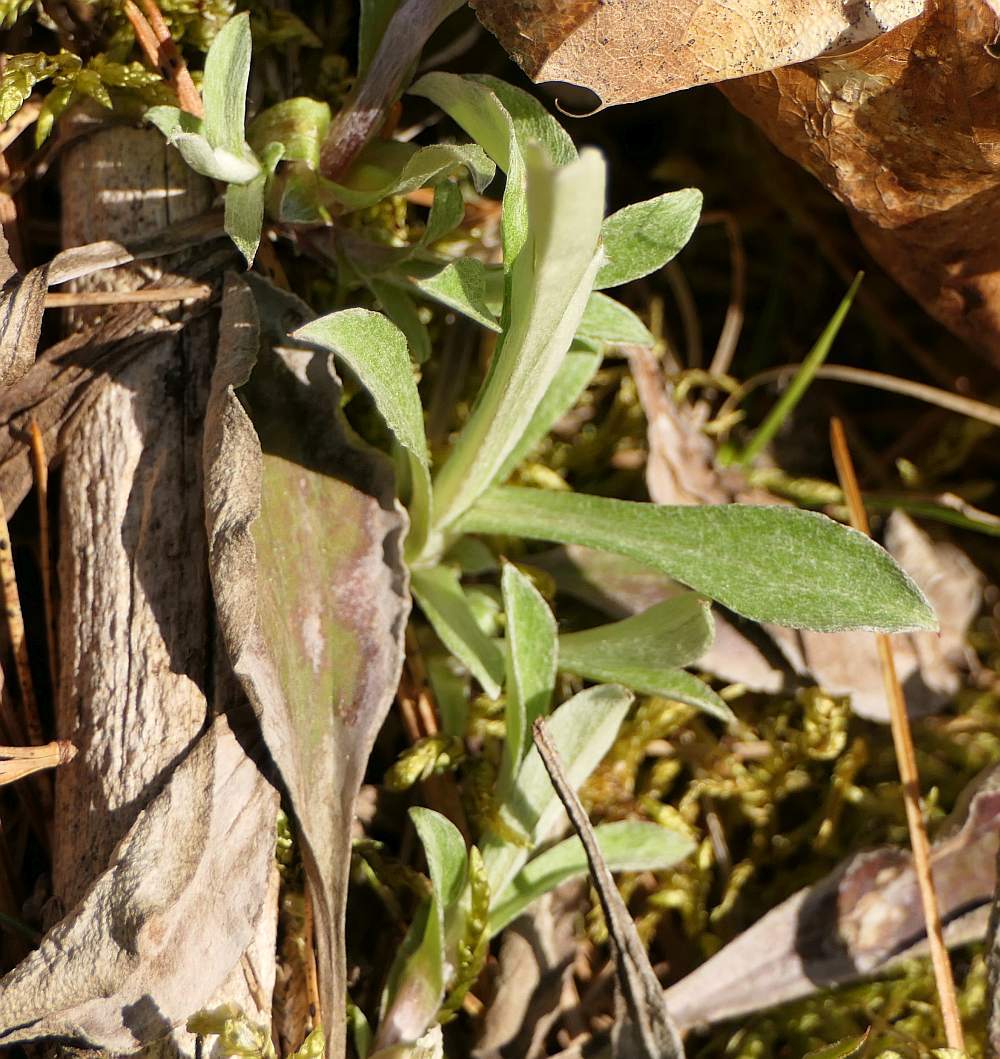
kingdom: Plantae
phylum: Tracheophyta
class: Magnoliopsida
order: Asterales
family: Asteraceae
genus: Antennaria
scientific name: Antennaria howellii
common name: Howell's pussytoes
